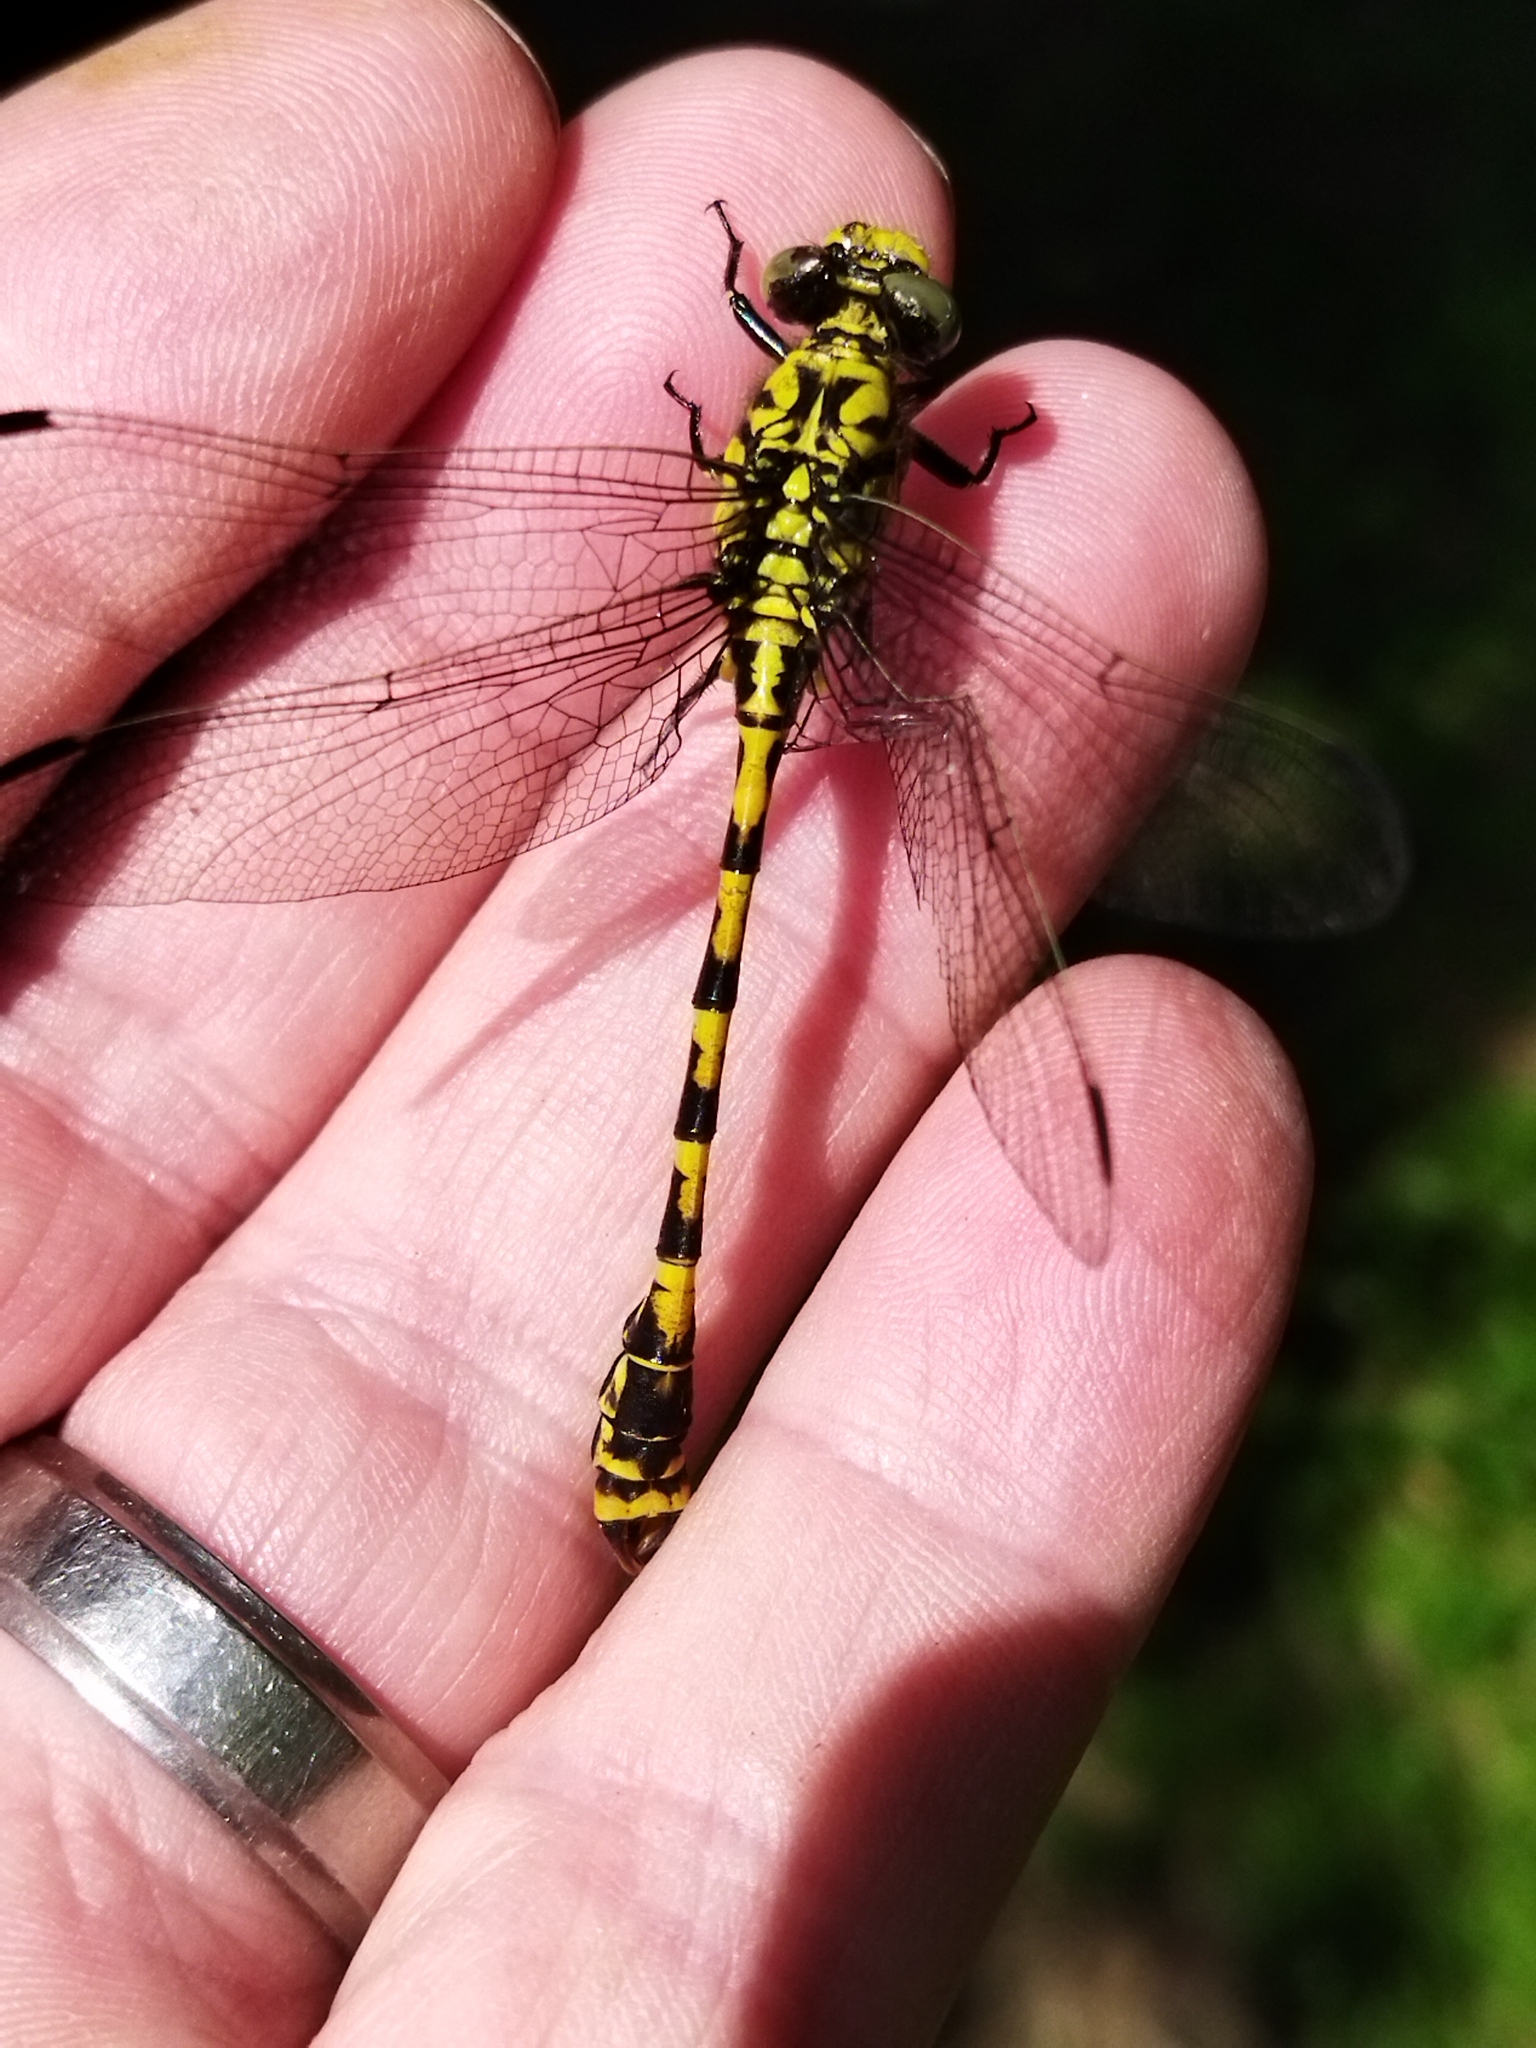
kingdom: Animalia
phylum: Arthropoda
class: Insecta
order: Odonata
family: Gomphidae
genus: Onychogomphus
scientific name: Onychogomphus forcipatus
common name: Small pincertail
